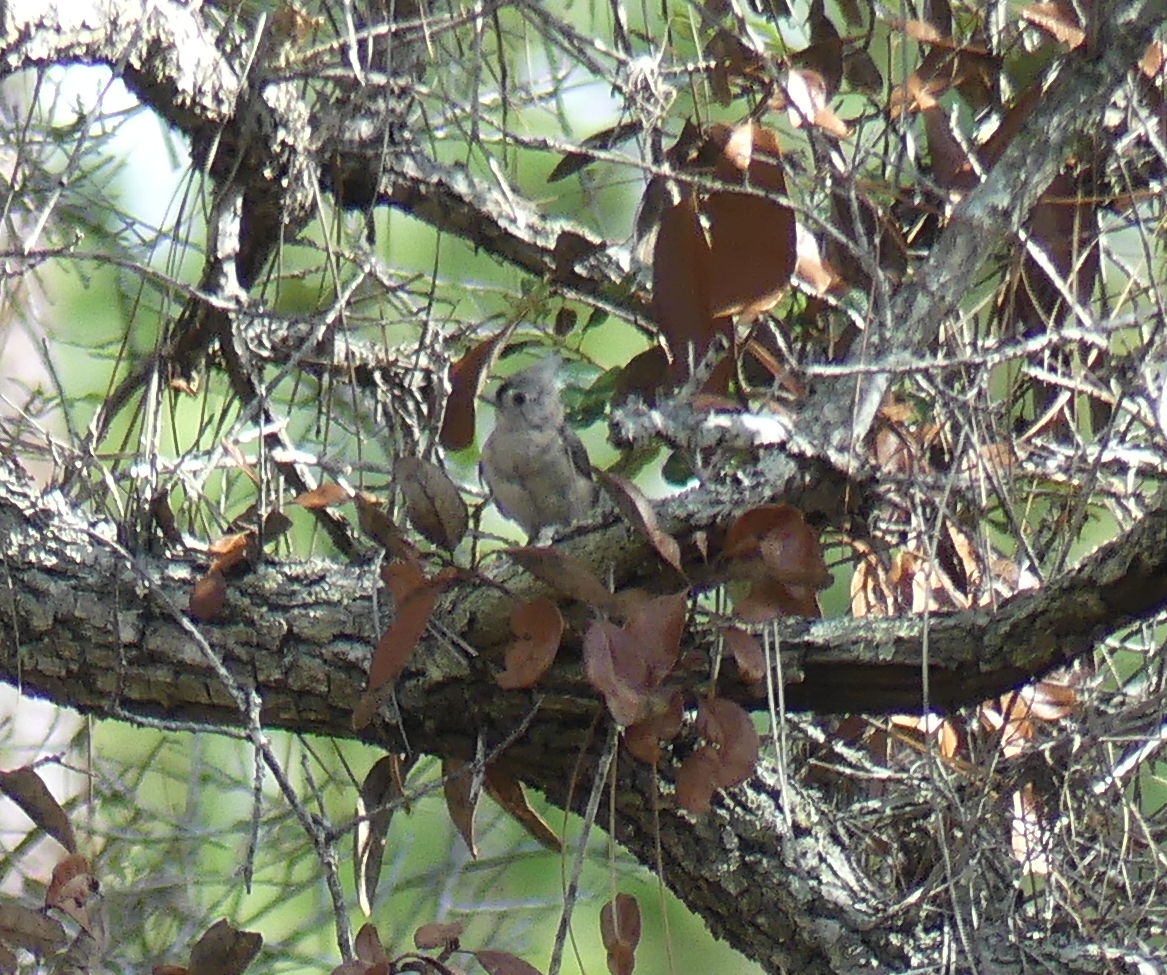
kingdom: Animalia
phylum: Chordata
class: Aves
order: Passeriformes
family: Paridae
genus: Baeolophus
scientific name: Baeolophus bicolor
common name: Tufted titmouse
